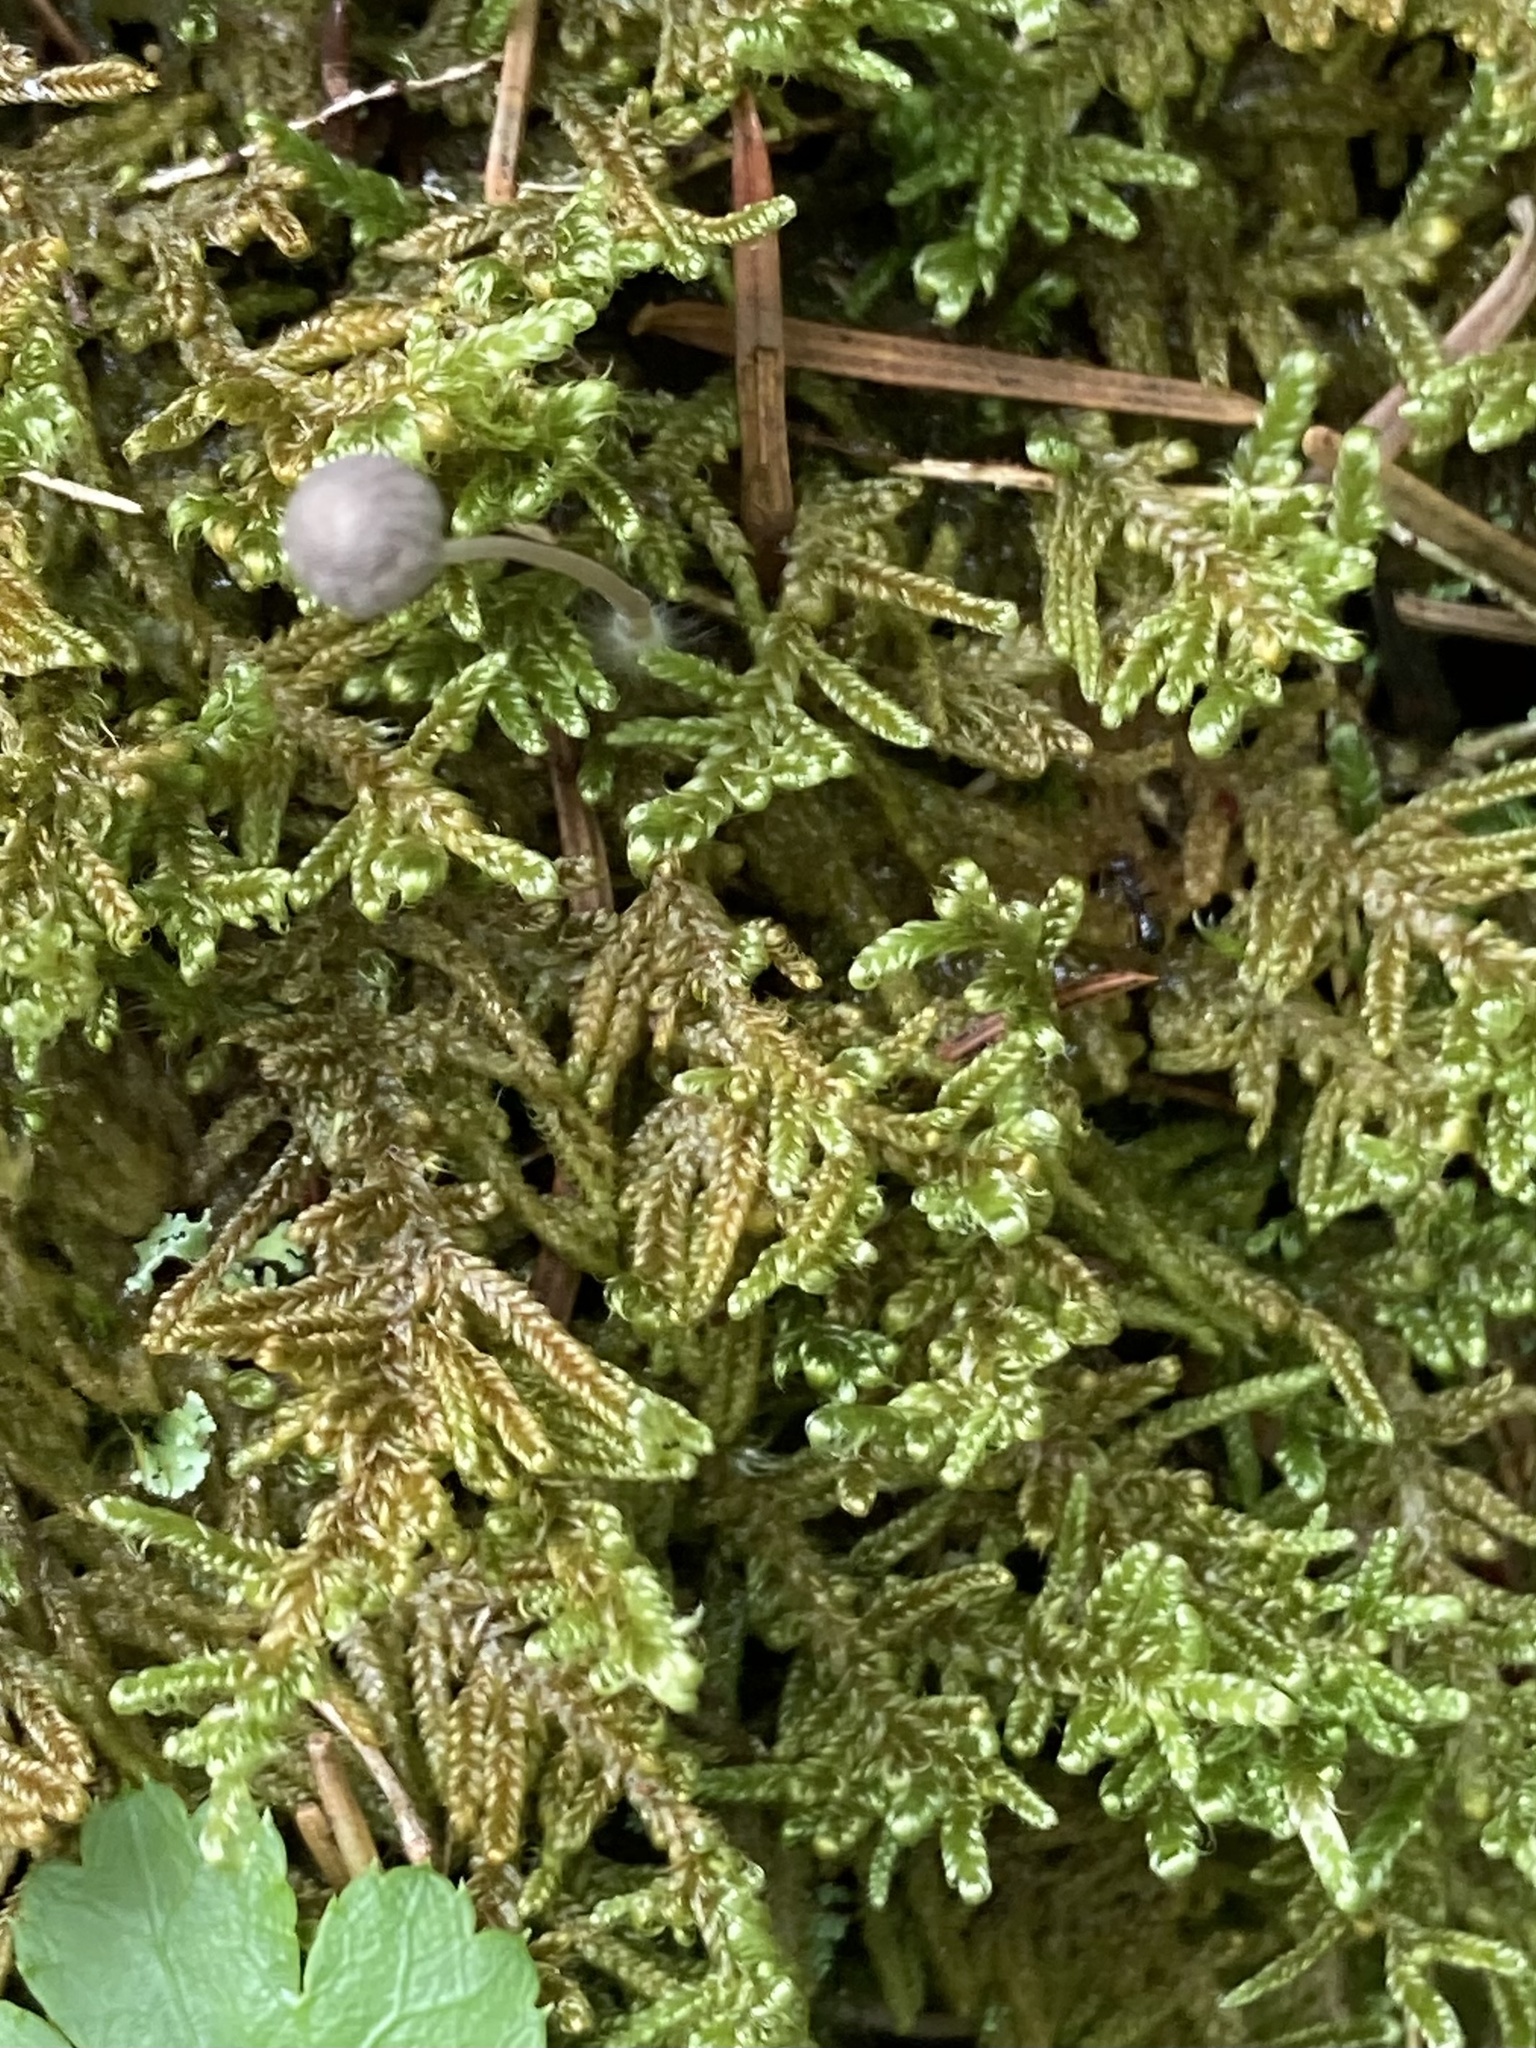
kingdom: Plantae
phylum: Bryophyta
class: Bryopsida
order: Hypnales
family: Callicladiaceae
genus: Callicladium
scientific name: Callicladium imponens
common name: Brocade moss
